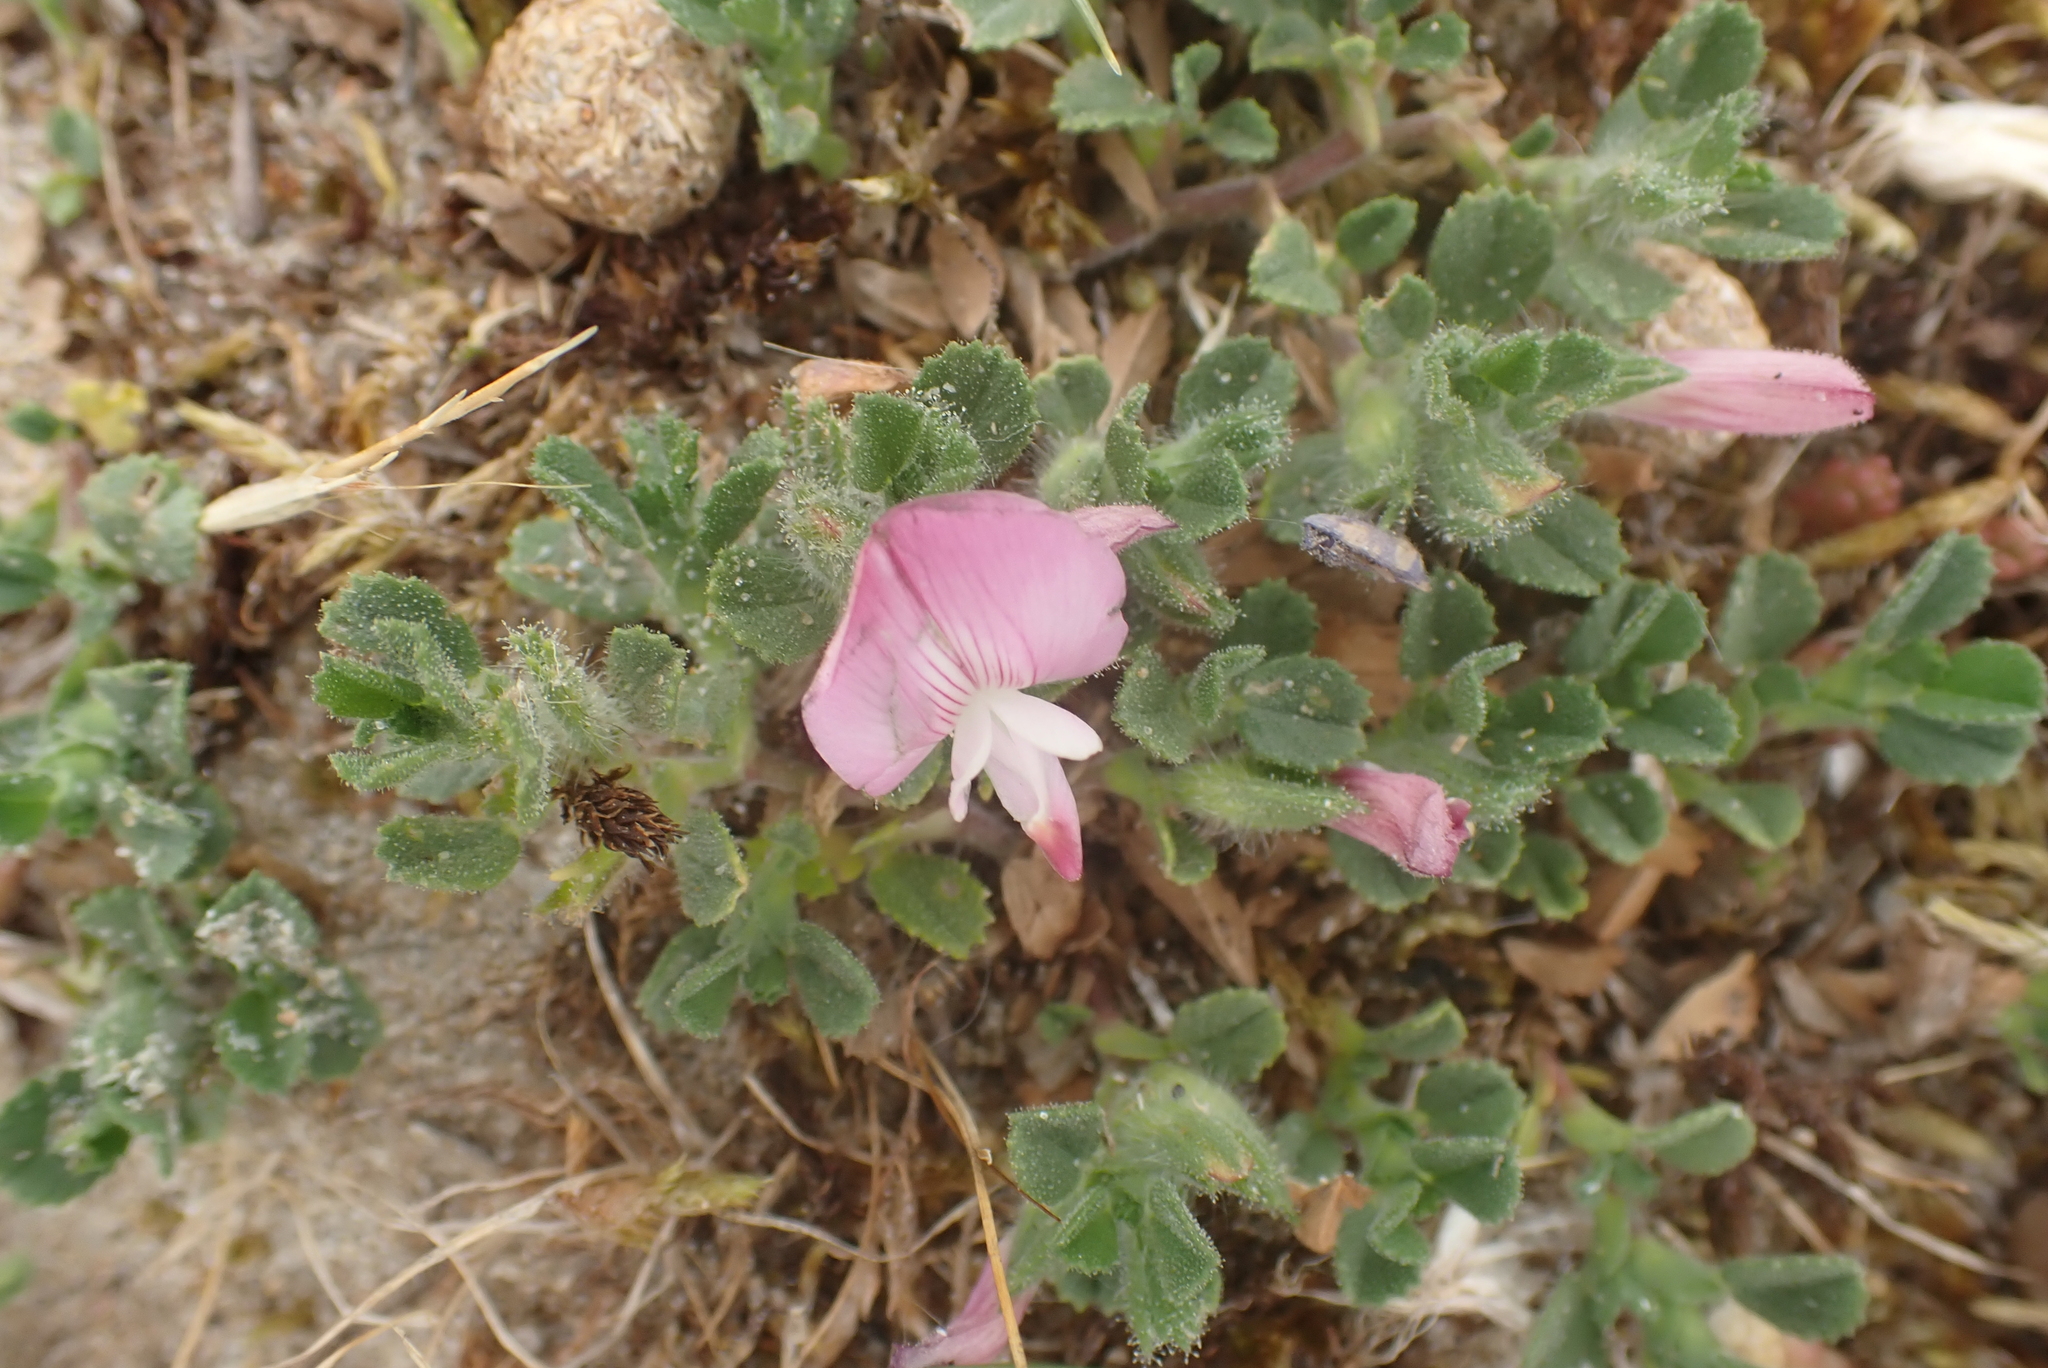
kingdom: Plantae
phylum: Tracheophyta
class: Magnoliopsida
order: Fabales
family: Fabaceae
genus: Ononis
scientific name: Ononis spinosa
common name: Spiny restharrow
